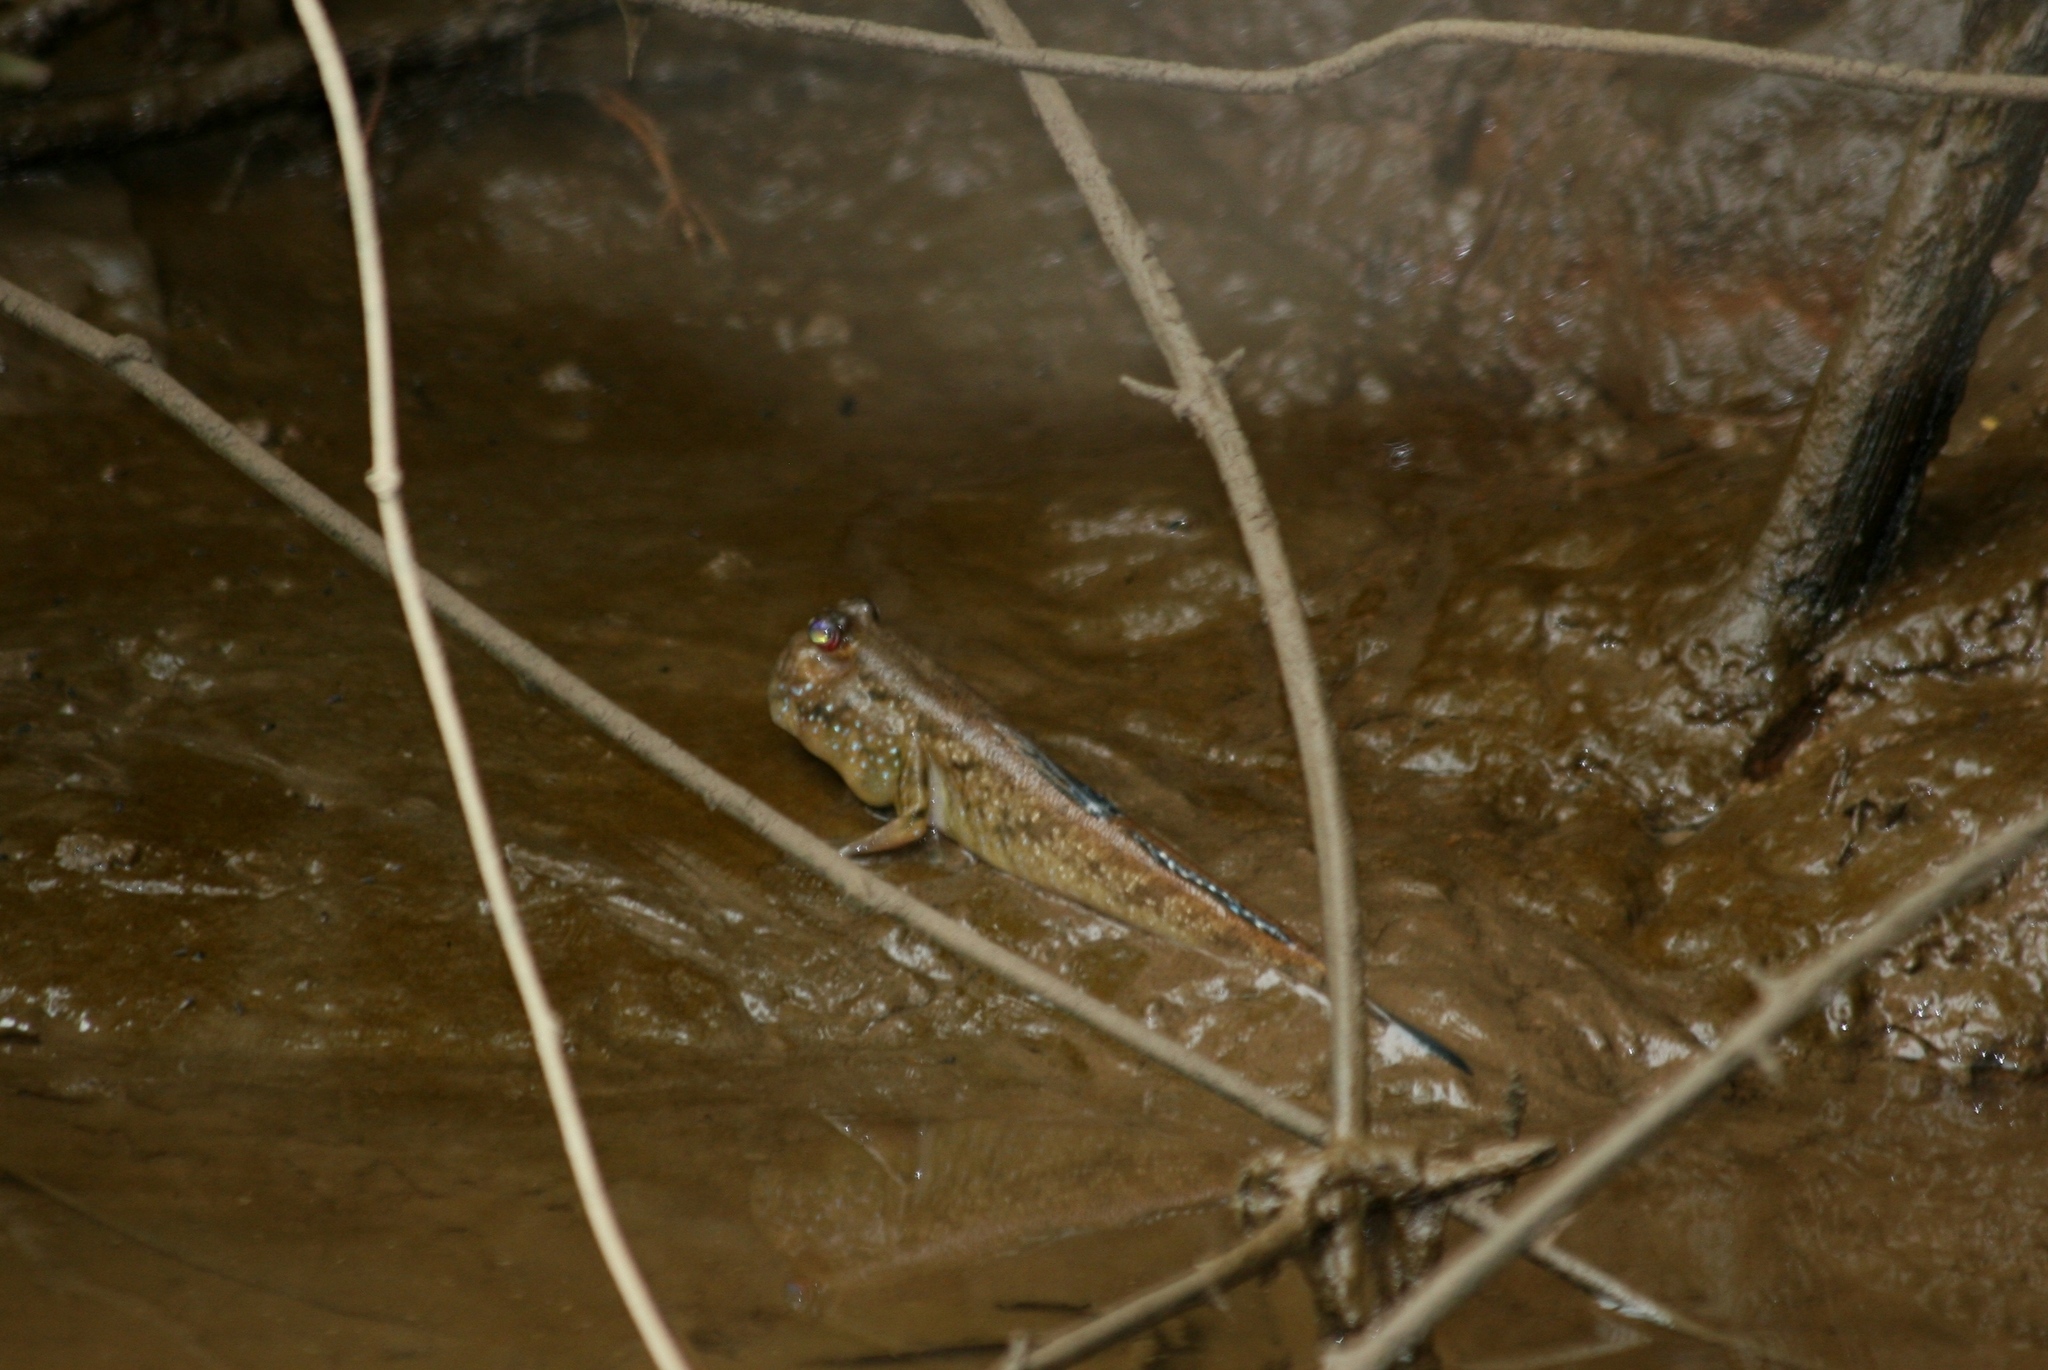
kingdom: Animalia
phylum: Chordata
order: Perciformes
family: Gobiidae
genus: Periophthalmus
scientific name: Periophthalmus barbarus
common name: Atlantic mudskipper
